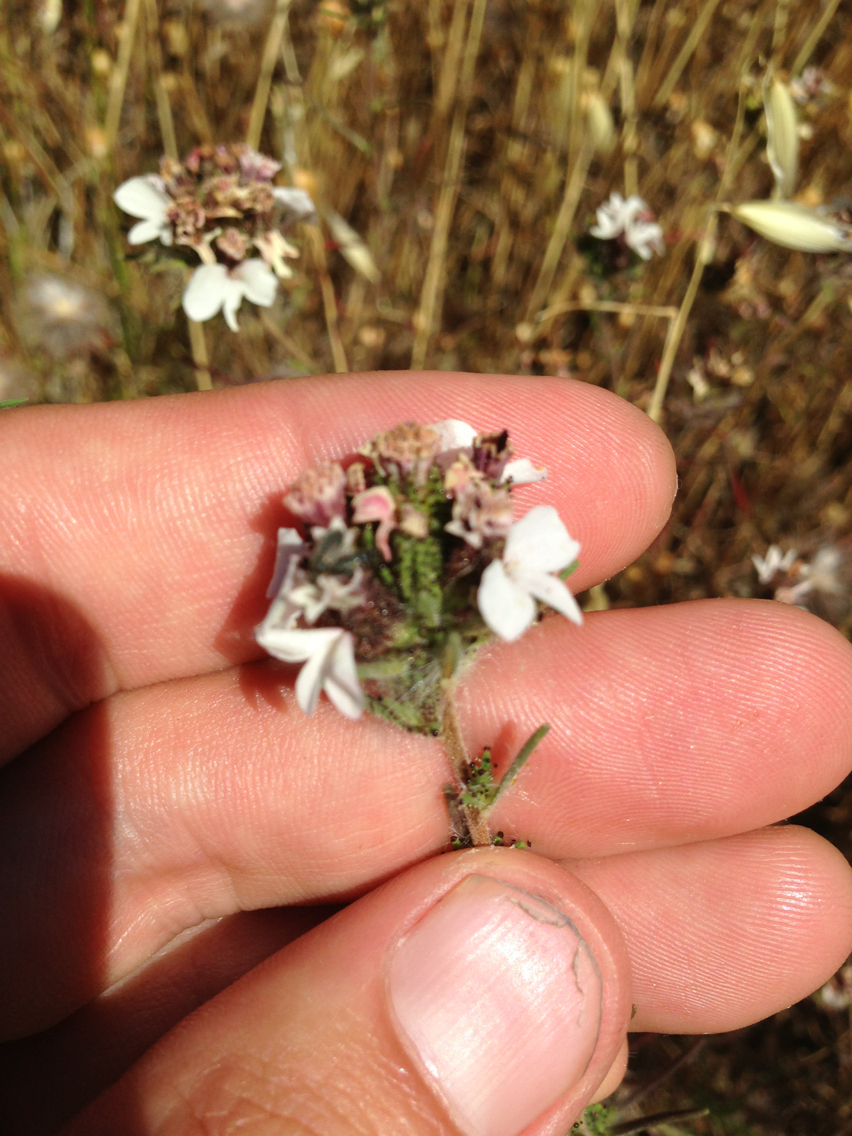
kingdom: Plantae
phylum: Tracheophyta
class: Magnoliopsida
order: Asterales
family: Asteraceae
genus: Calycadenia
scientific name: Calycadenia multiglandulosa
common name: Sticky calycadenia
